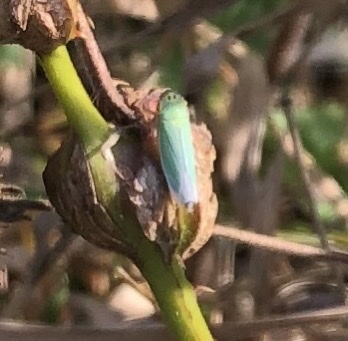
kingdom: Animalia
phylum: Arthropoda
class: Insecta
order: Hemiptera
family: Cicadellidae
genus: Cicadella
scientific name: Cicadella viridis
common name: Leafhopper
